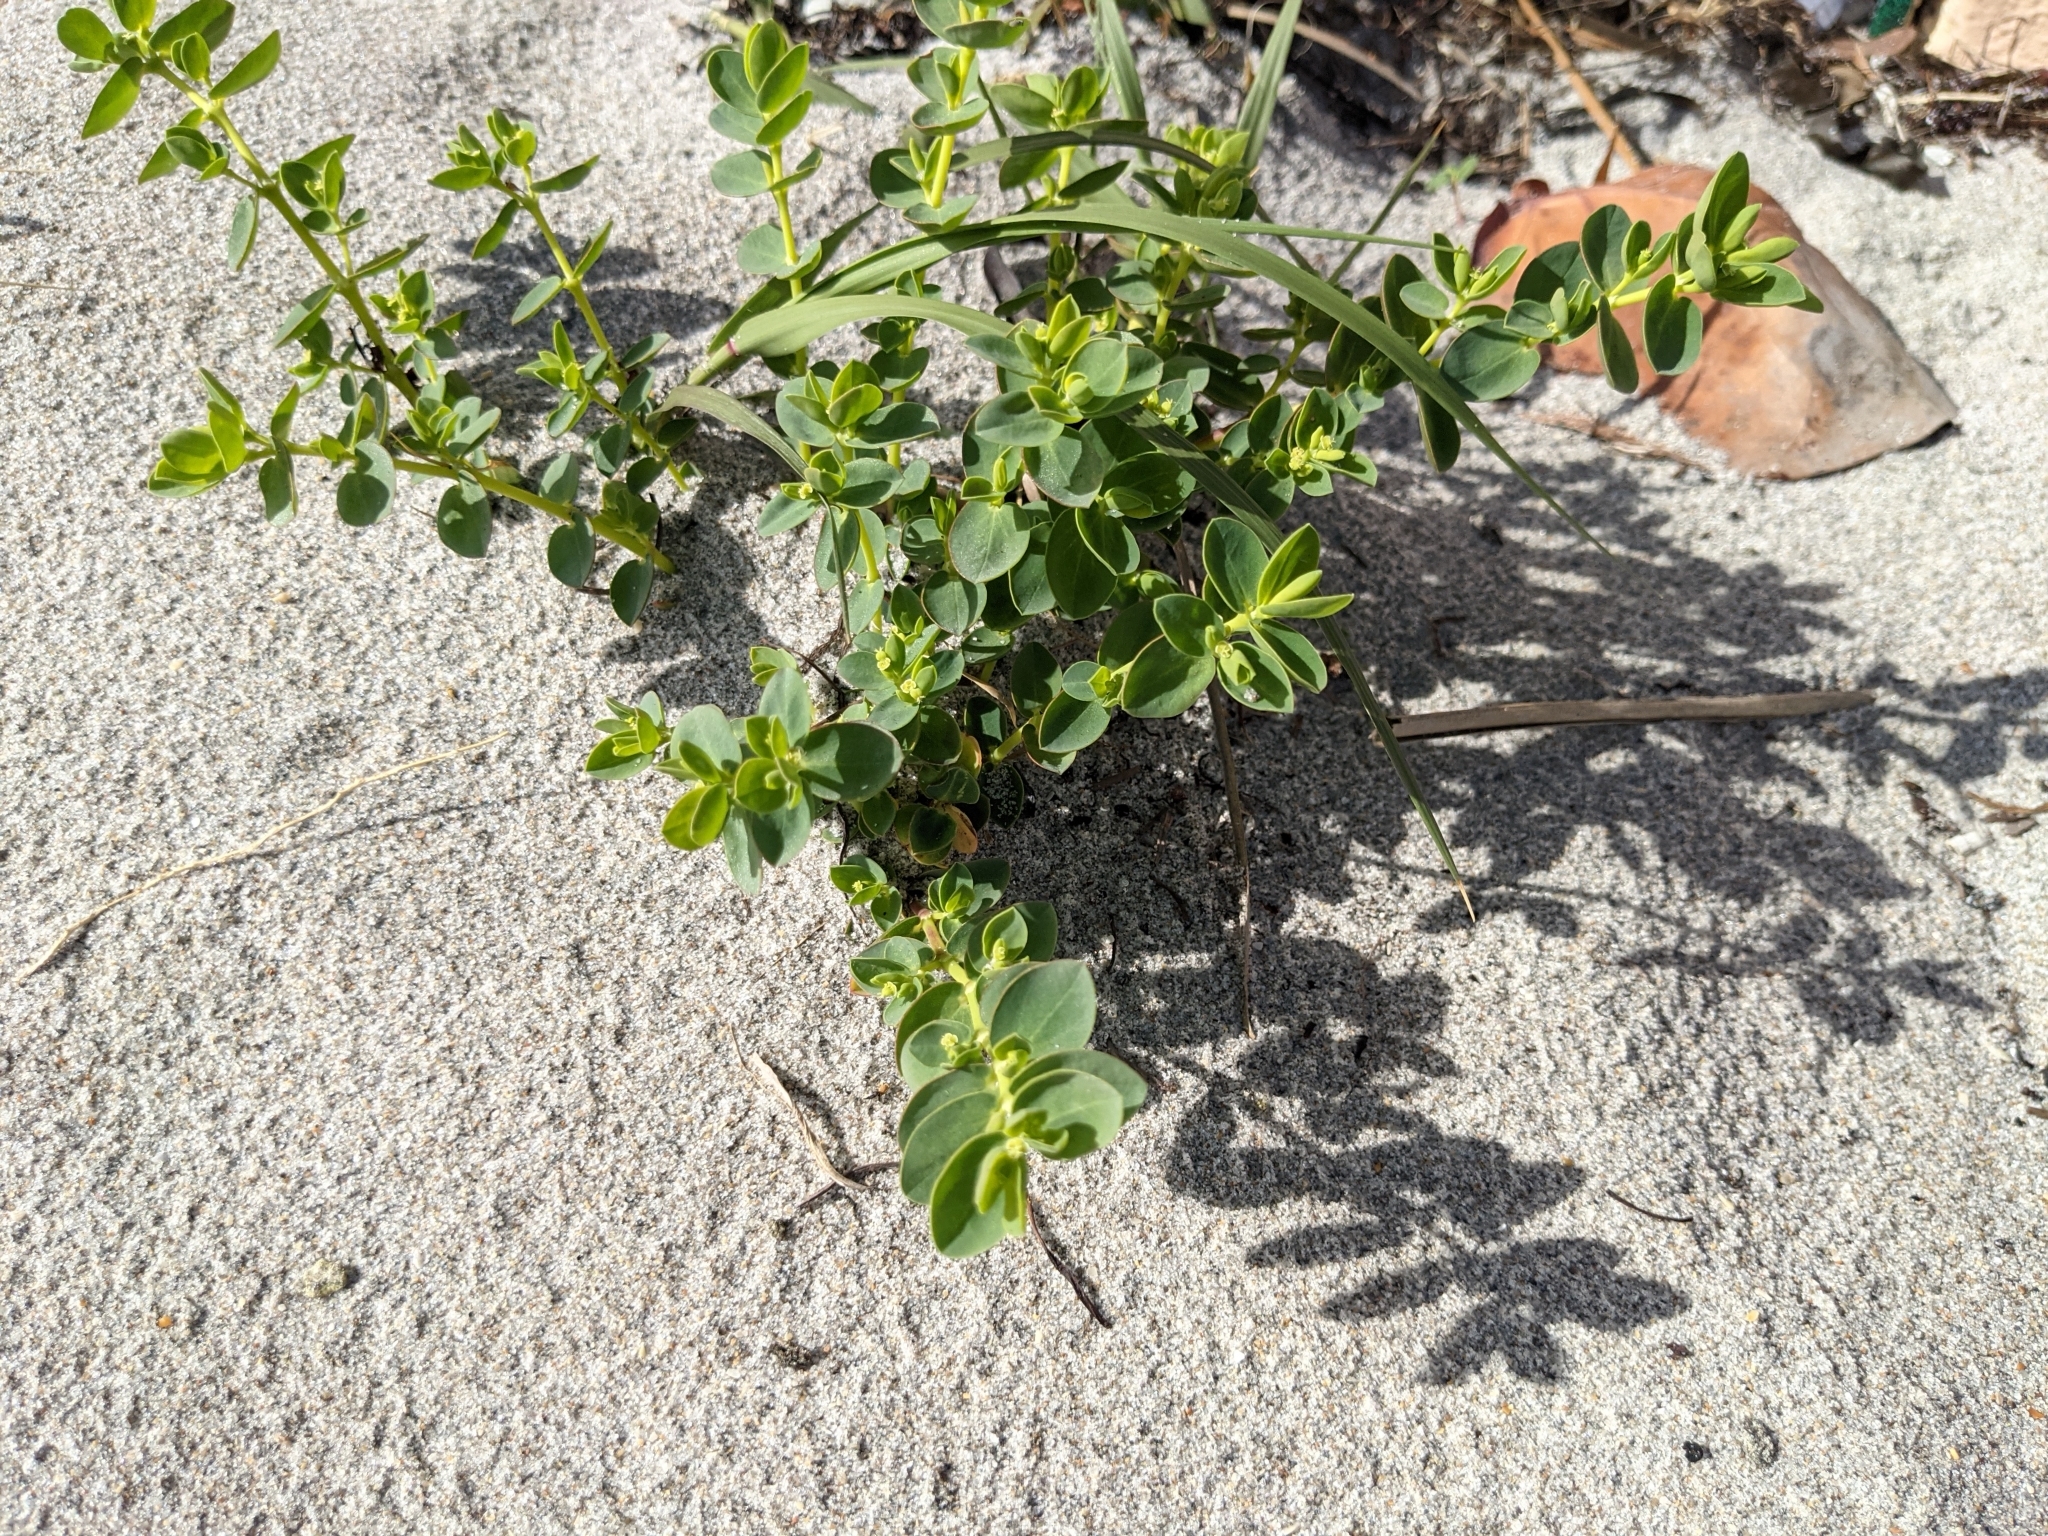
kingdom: Plantae
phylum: Tracheophyta
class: Magnoliopsida
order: Malpighiales
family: Euphorbiaceae
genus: Euphorbia
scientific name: Euphorbia mesembryanthemifolia
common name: Coastal beach sandmat
